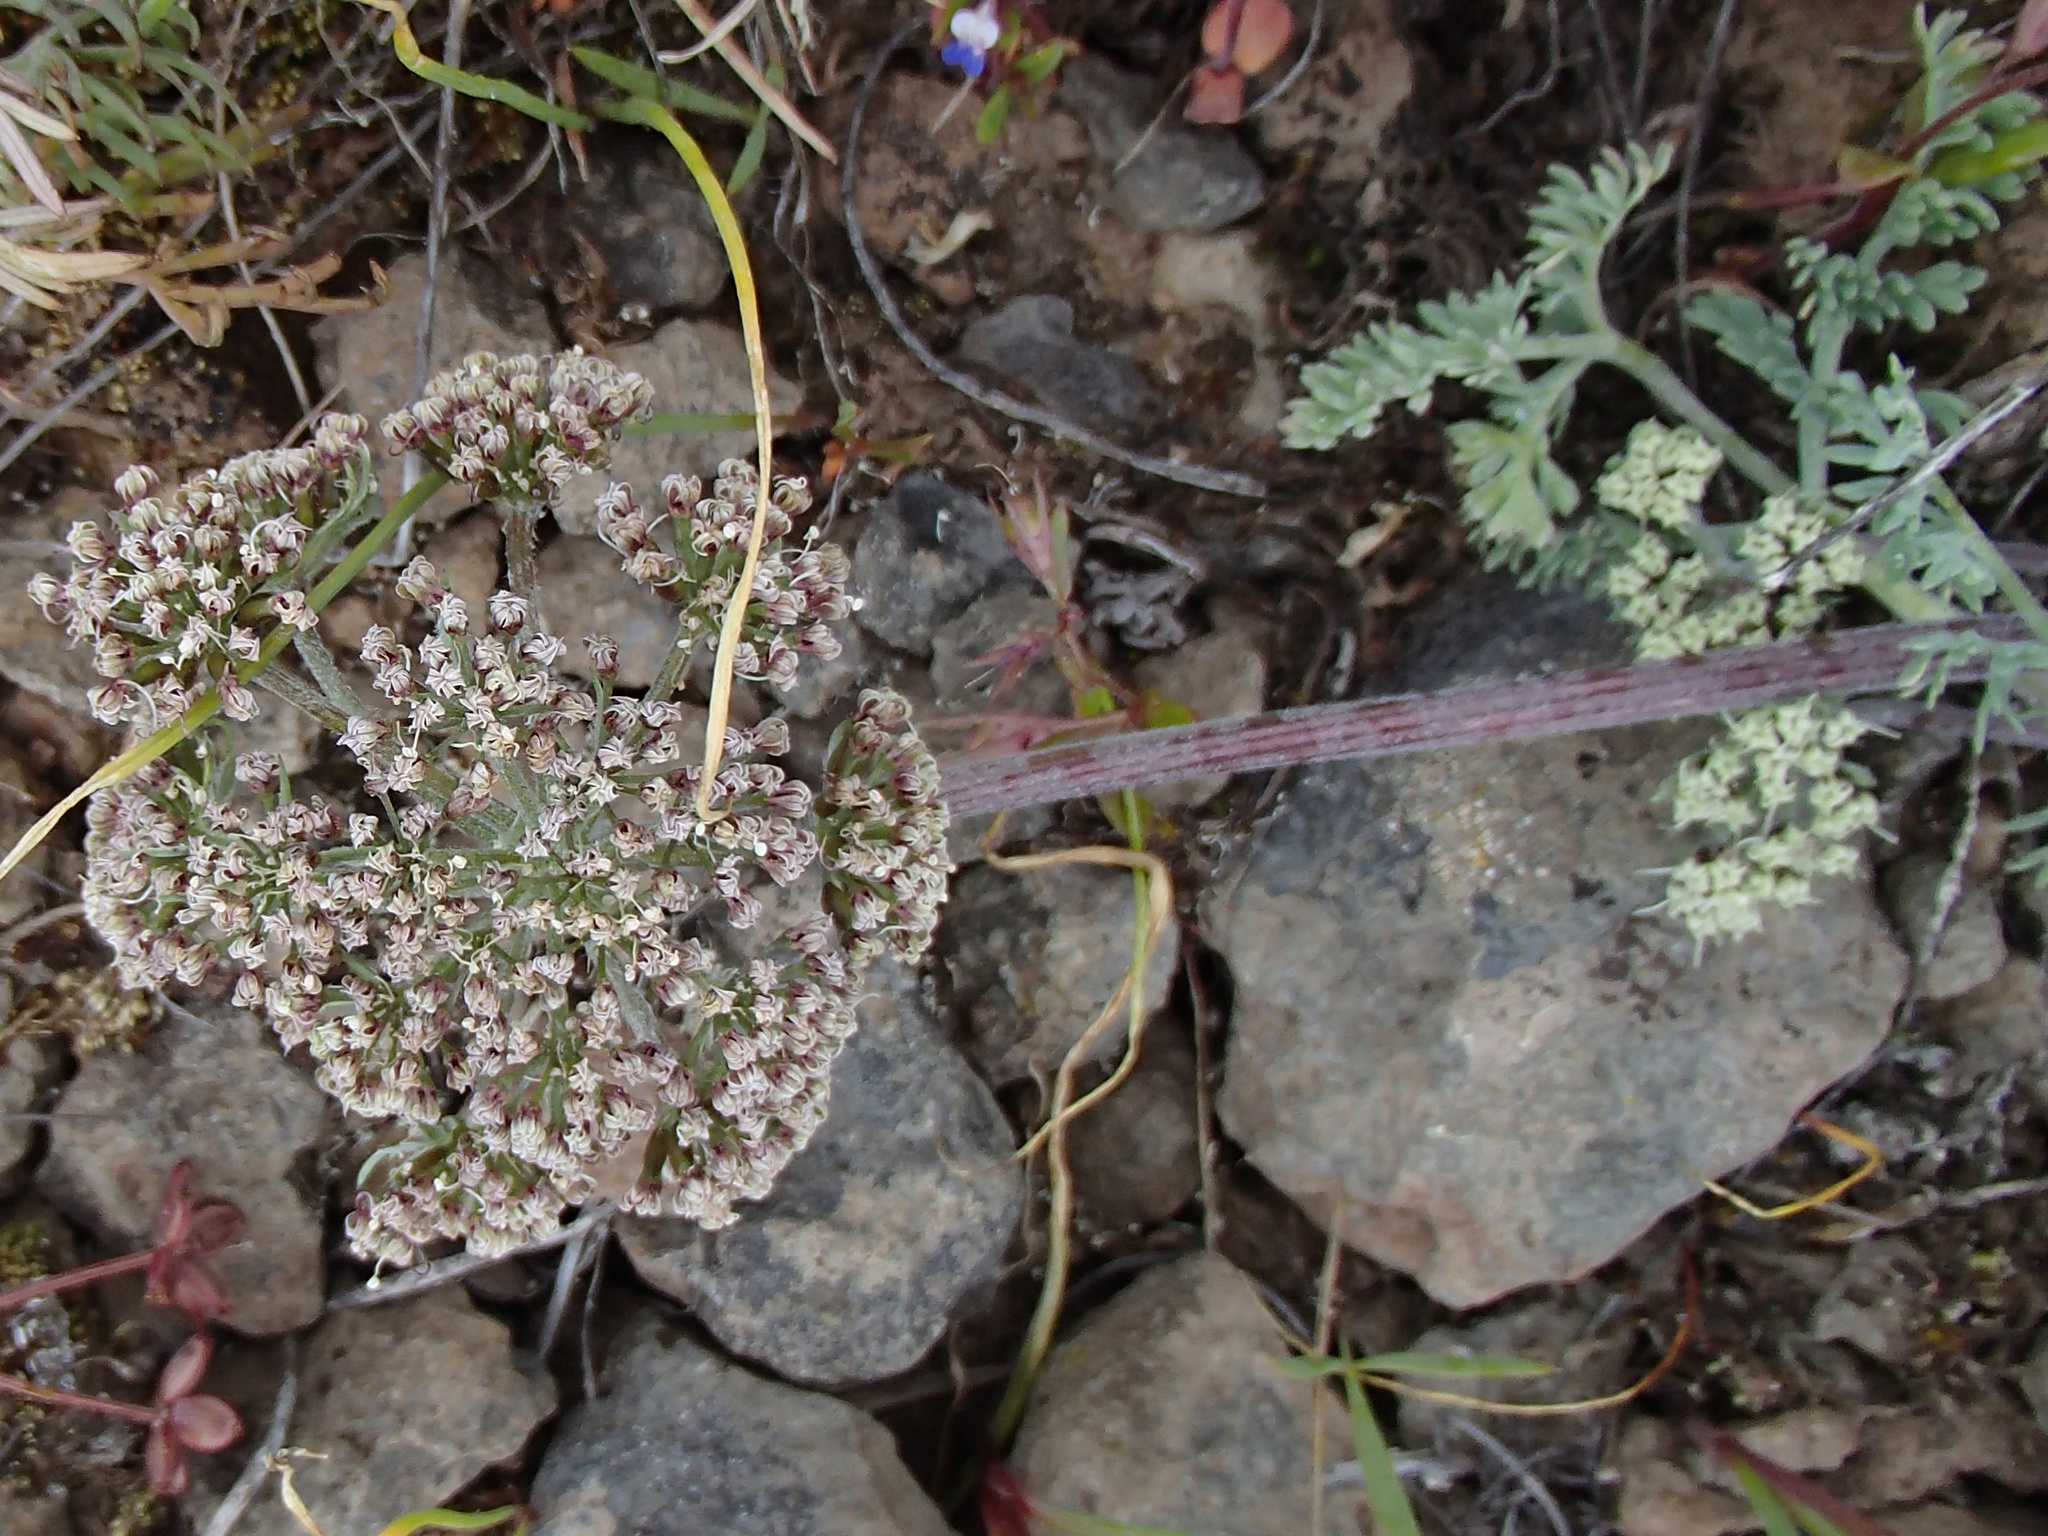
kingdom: Plantae
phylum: Tracheophyta
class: Magnoliopsida
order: Apiales
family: Apiaceae
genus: Lomatium
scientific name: Lomatium macrocarpum
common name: Big-seed biscuitroot
